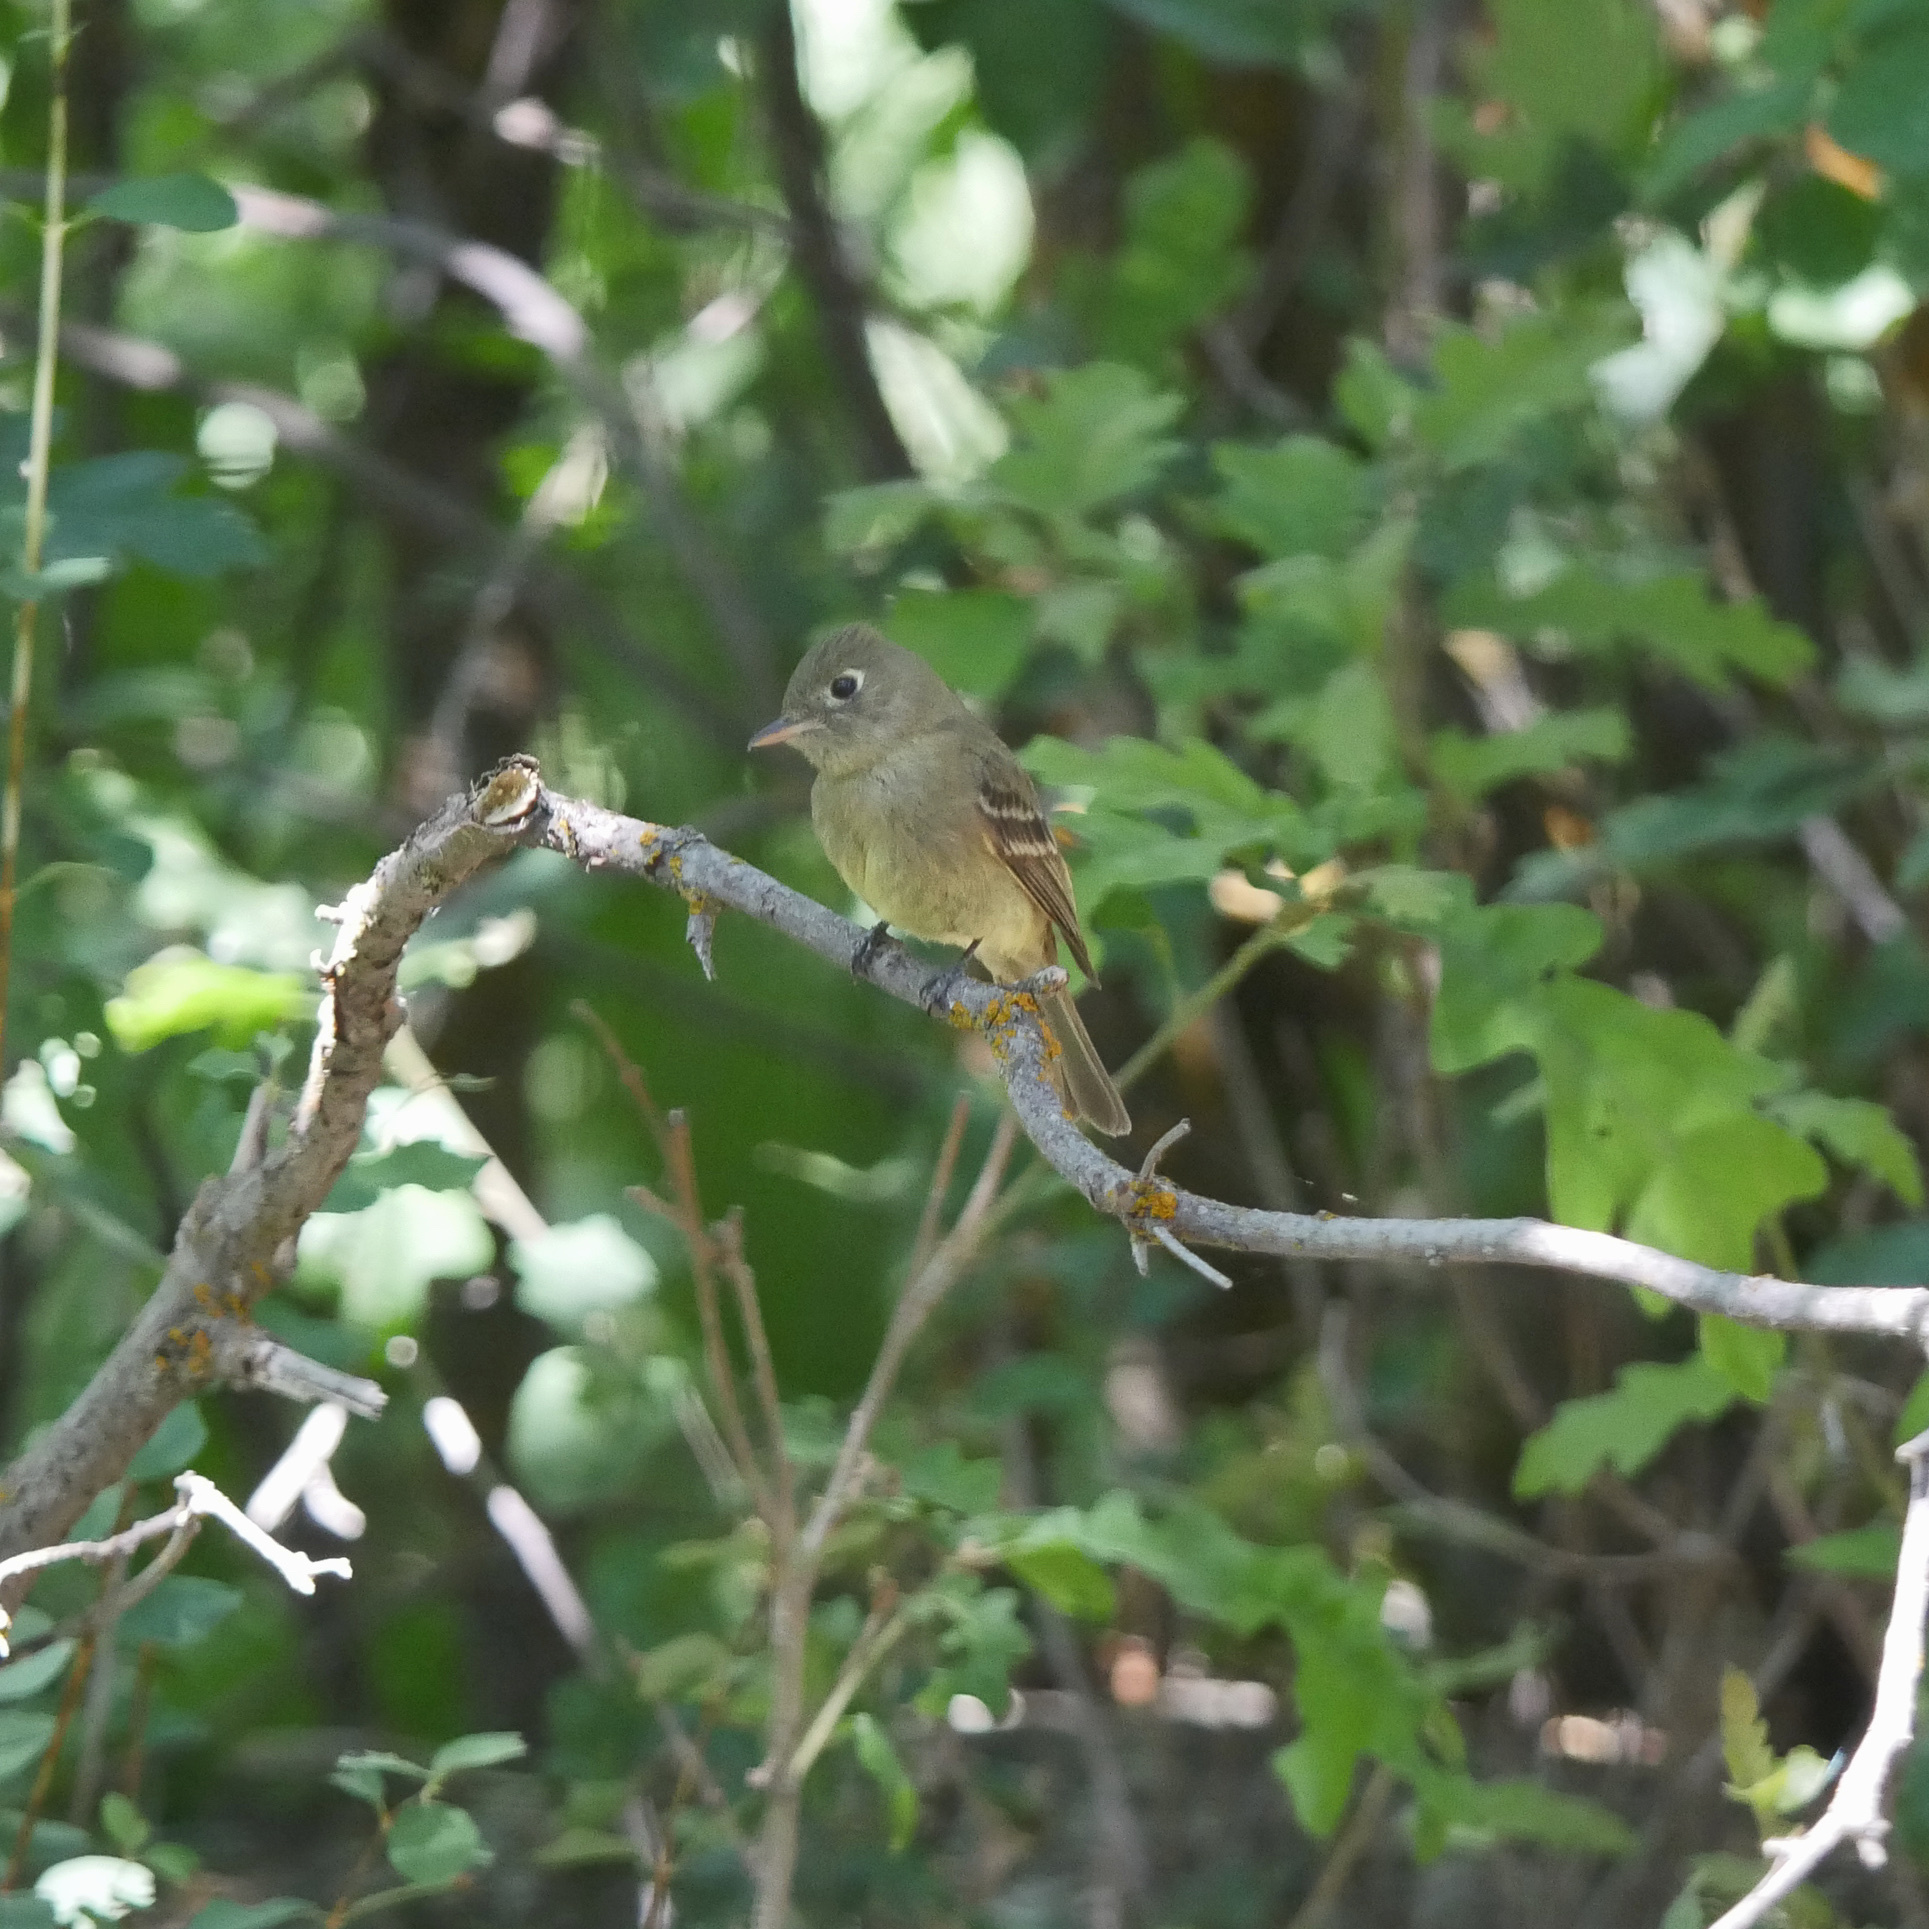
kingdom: Animalia
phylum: Chordata
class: Aves
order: Passeriformes
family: Tyrannidae
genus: Empidonax
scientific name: Empidonax difficilis
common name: Pacific-slope flycatcher
